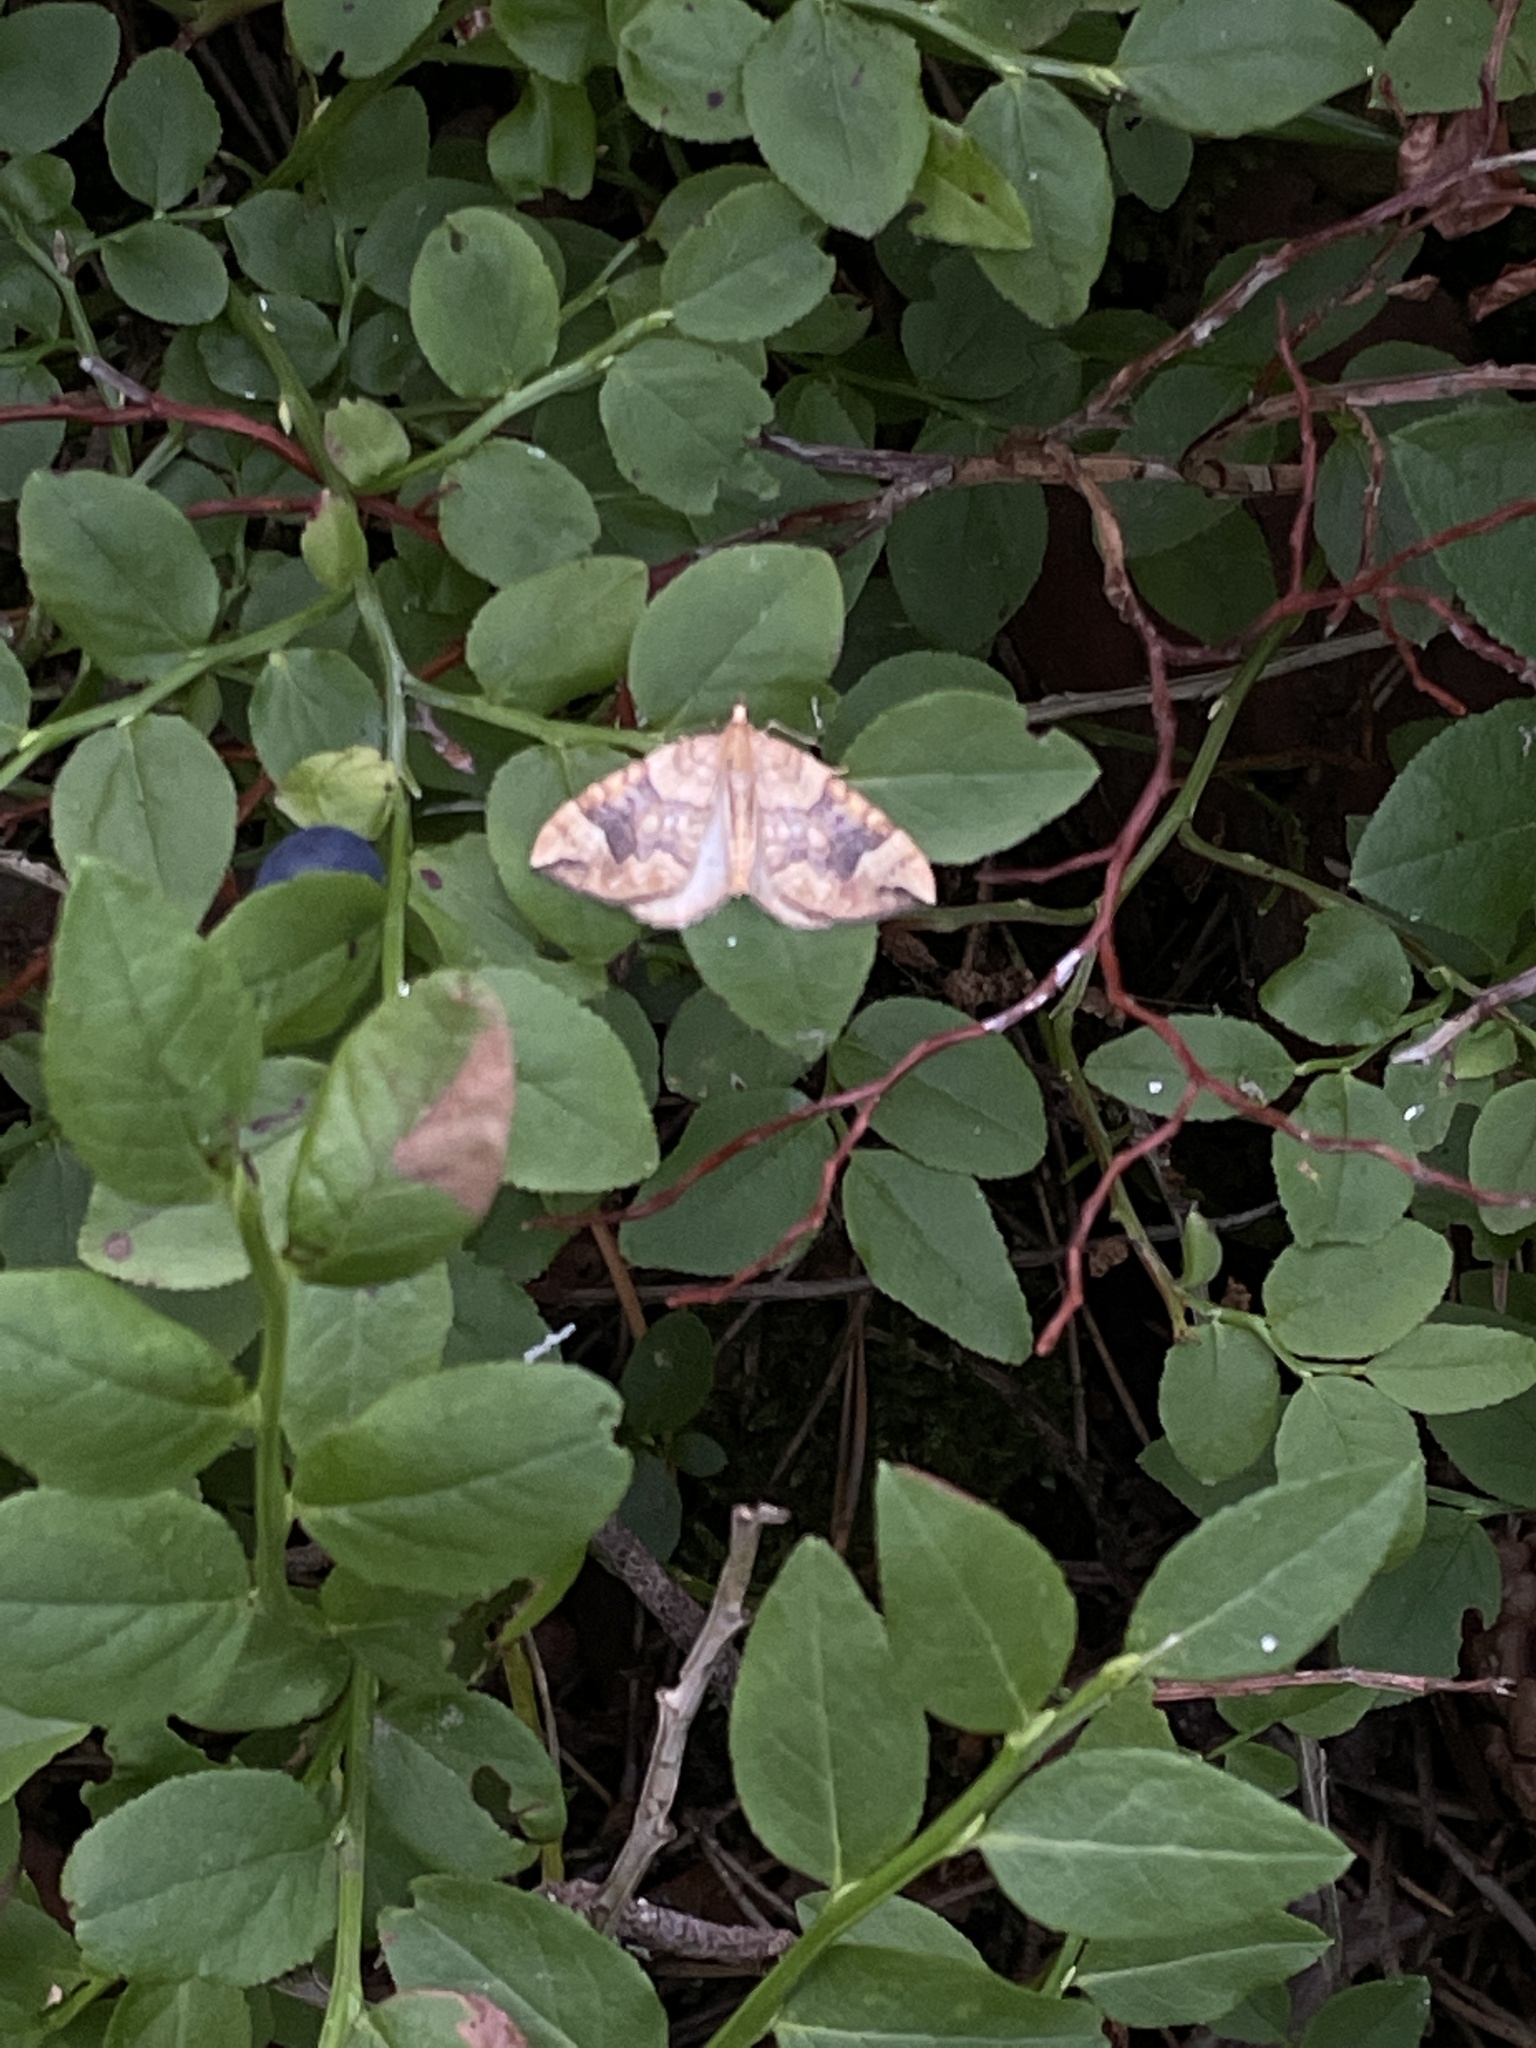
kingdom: Animalia
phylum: Arthropoda
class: Insecta
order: Lepidoptera
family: Geometridae
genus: Eulithis
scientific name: Eulithis populata
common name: Northern spinach
